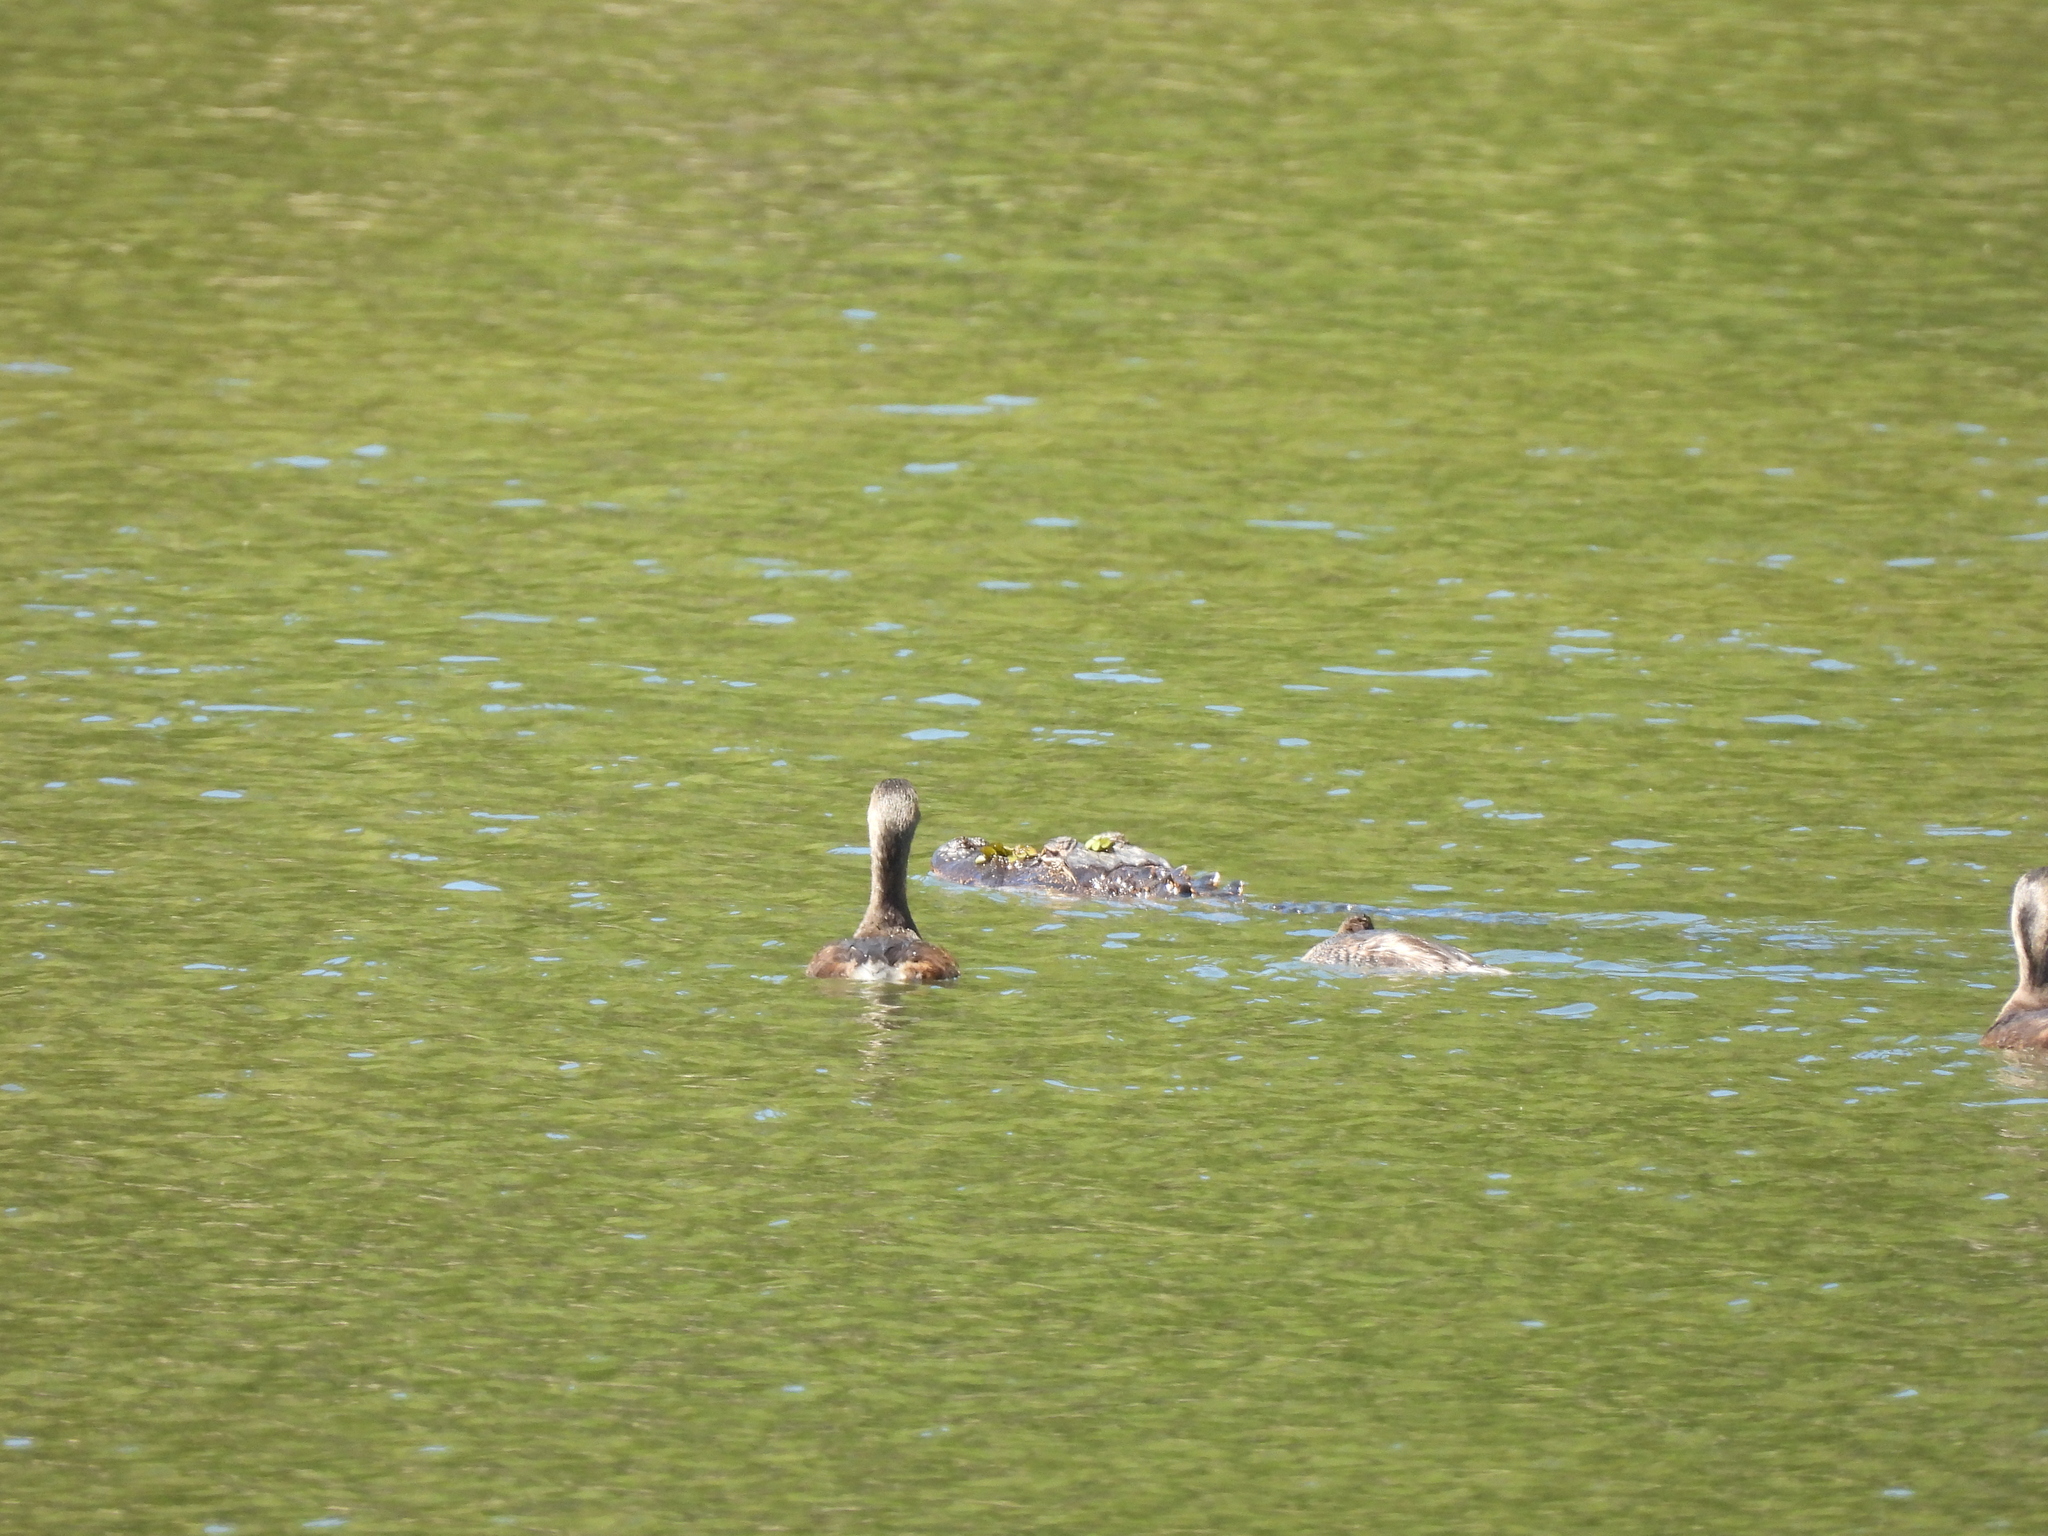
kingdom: Animalia
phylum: Chordata
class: Crocodylia
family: Alligatoridae
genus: Alligator
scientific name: Alligator mississippiensis
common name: American alligator
